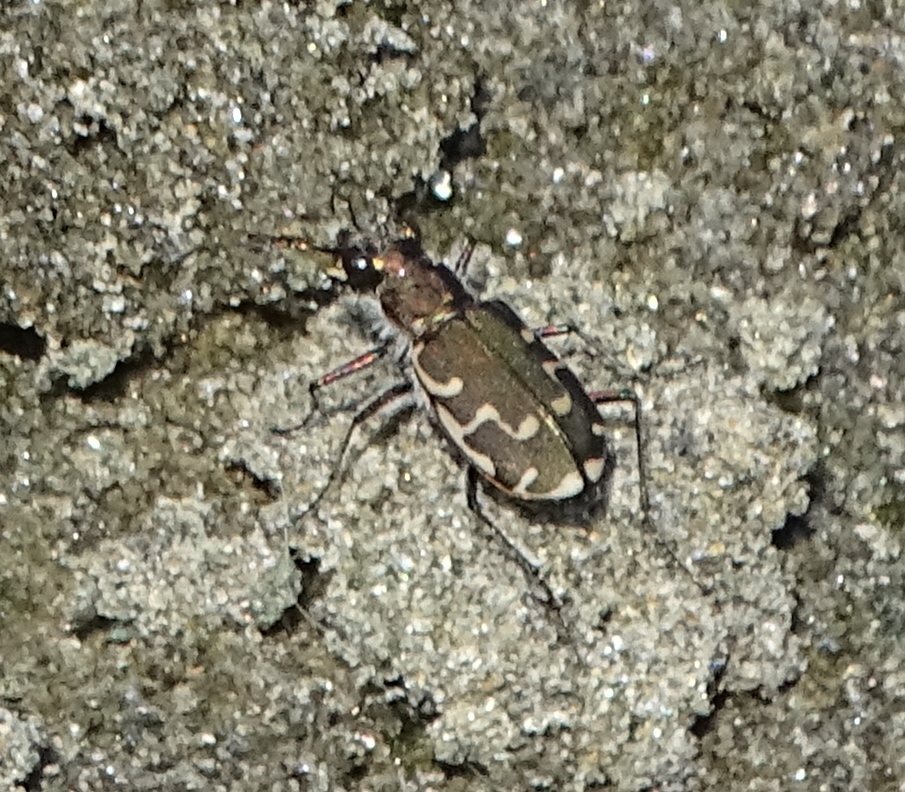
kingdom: Animalia
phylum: Arthropoda
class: Insecta
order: Coleoptera
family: Carabidae
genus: Cicindela
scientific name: Cicindela repanda
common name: Bronzed tiger beetle
